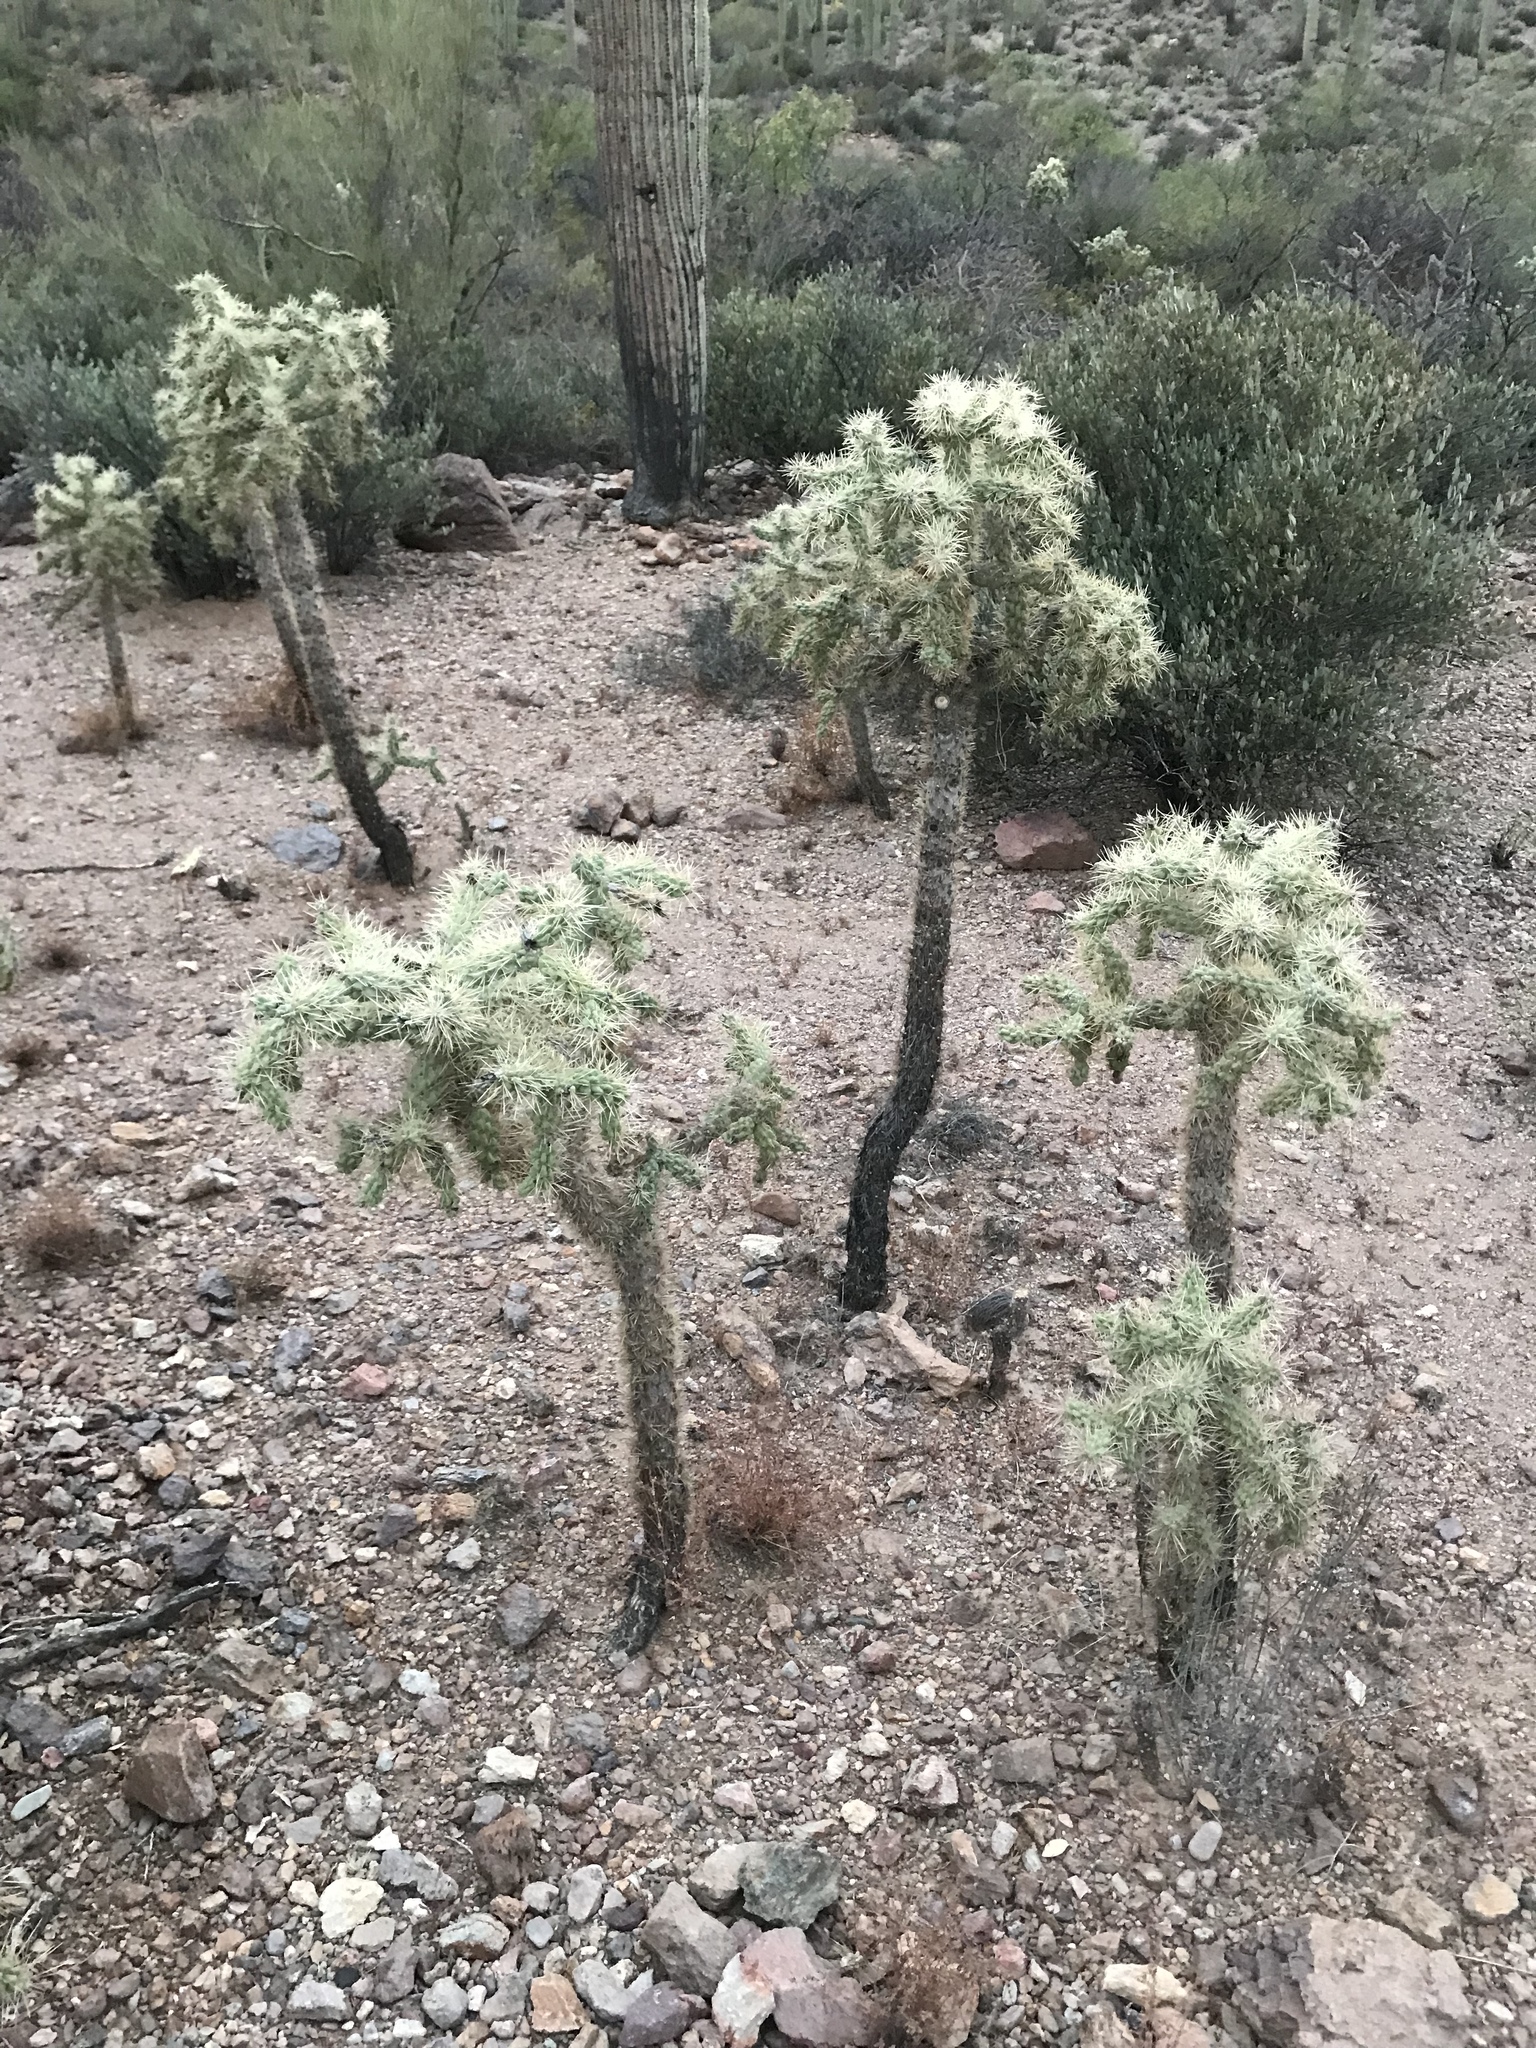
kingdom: Plantae
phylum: Tracheophyta
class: Magnoliopsida
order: Caryophyllales
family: Cactaceae
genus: Cylindropuntia
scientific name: Cylindropuntia fulgida
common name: Jumping cholla
